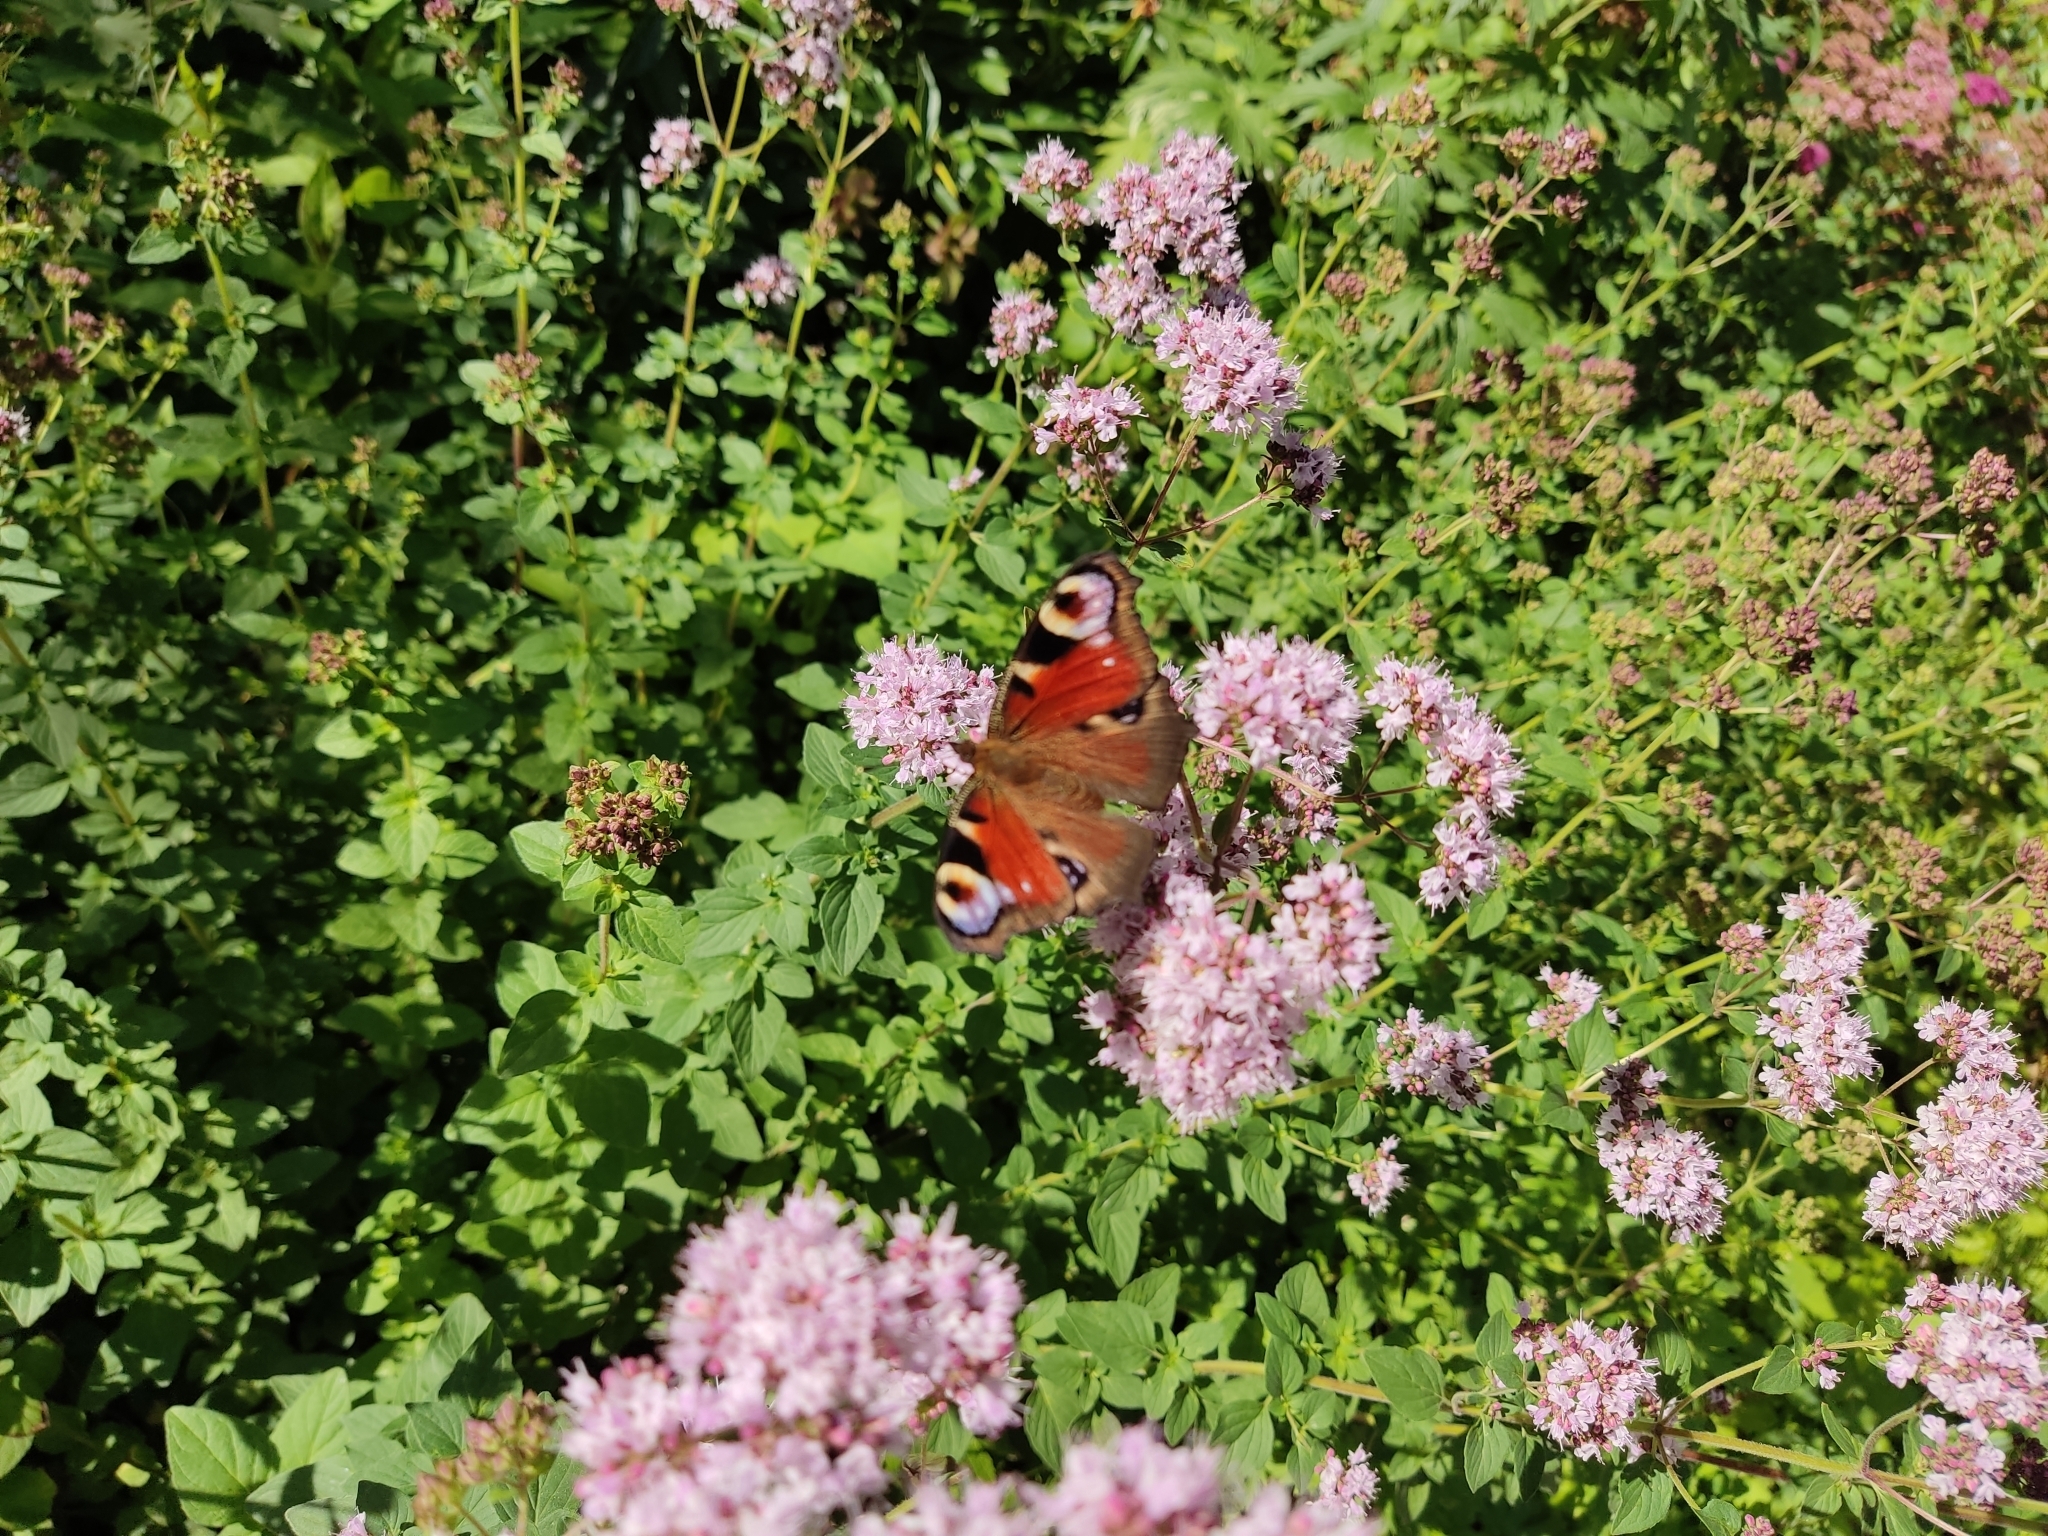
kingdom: Animalia
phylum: Arthropoda
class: Insecta
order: Lepidoptera
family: Nymphalidae
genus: Aglais
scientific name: Aglais io
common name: Peacock
